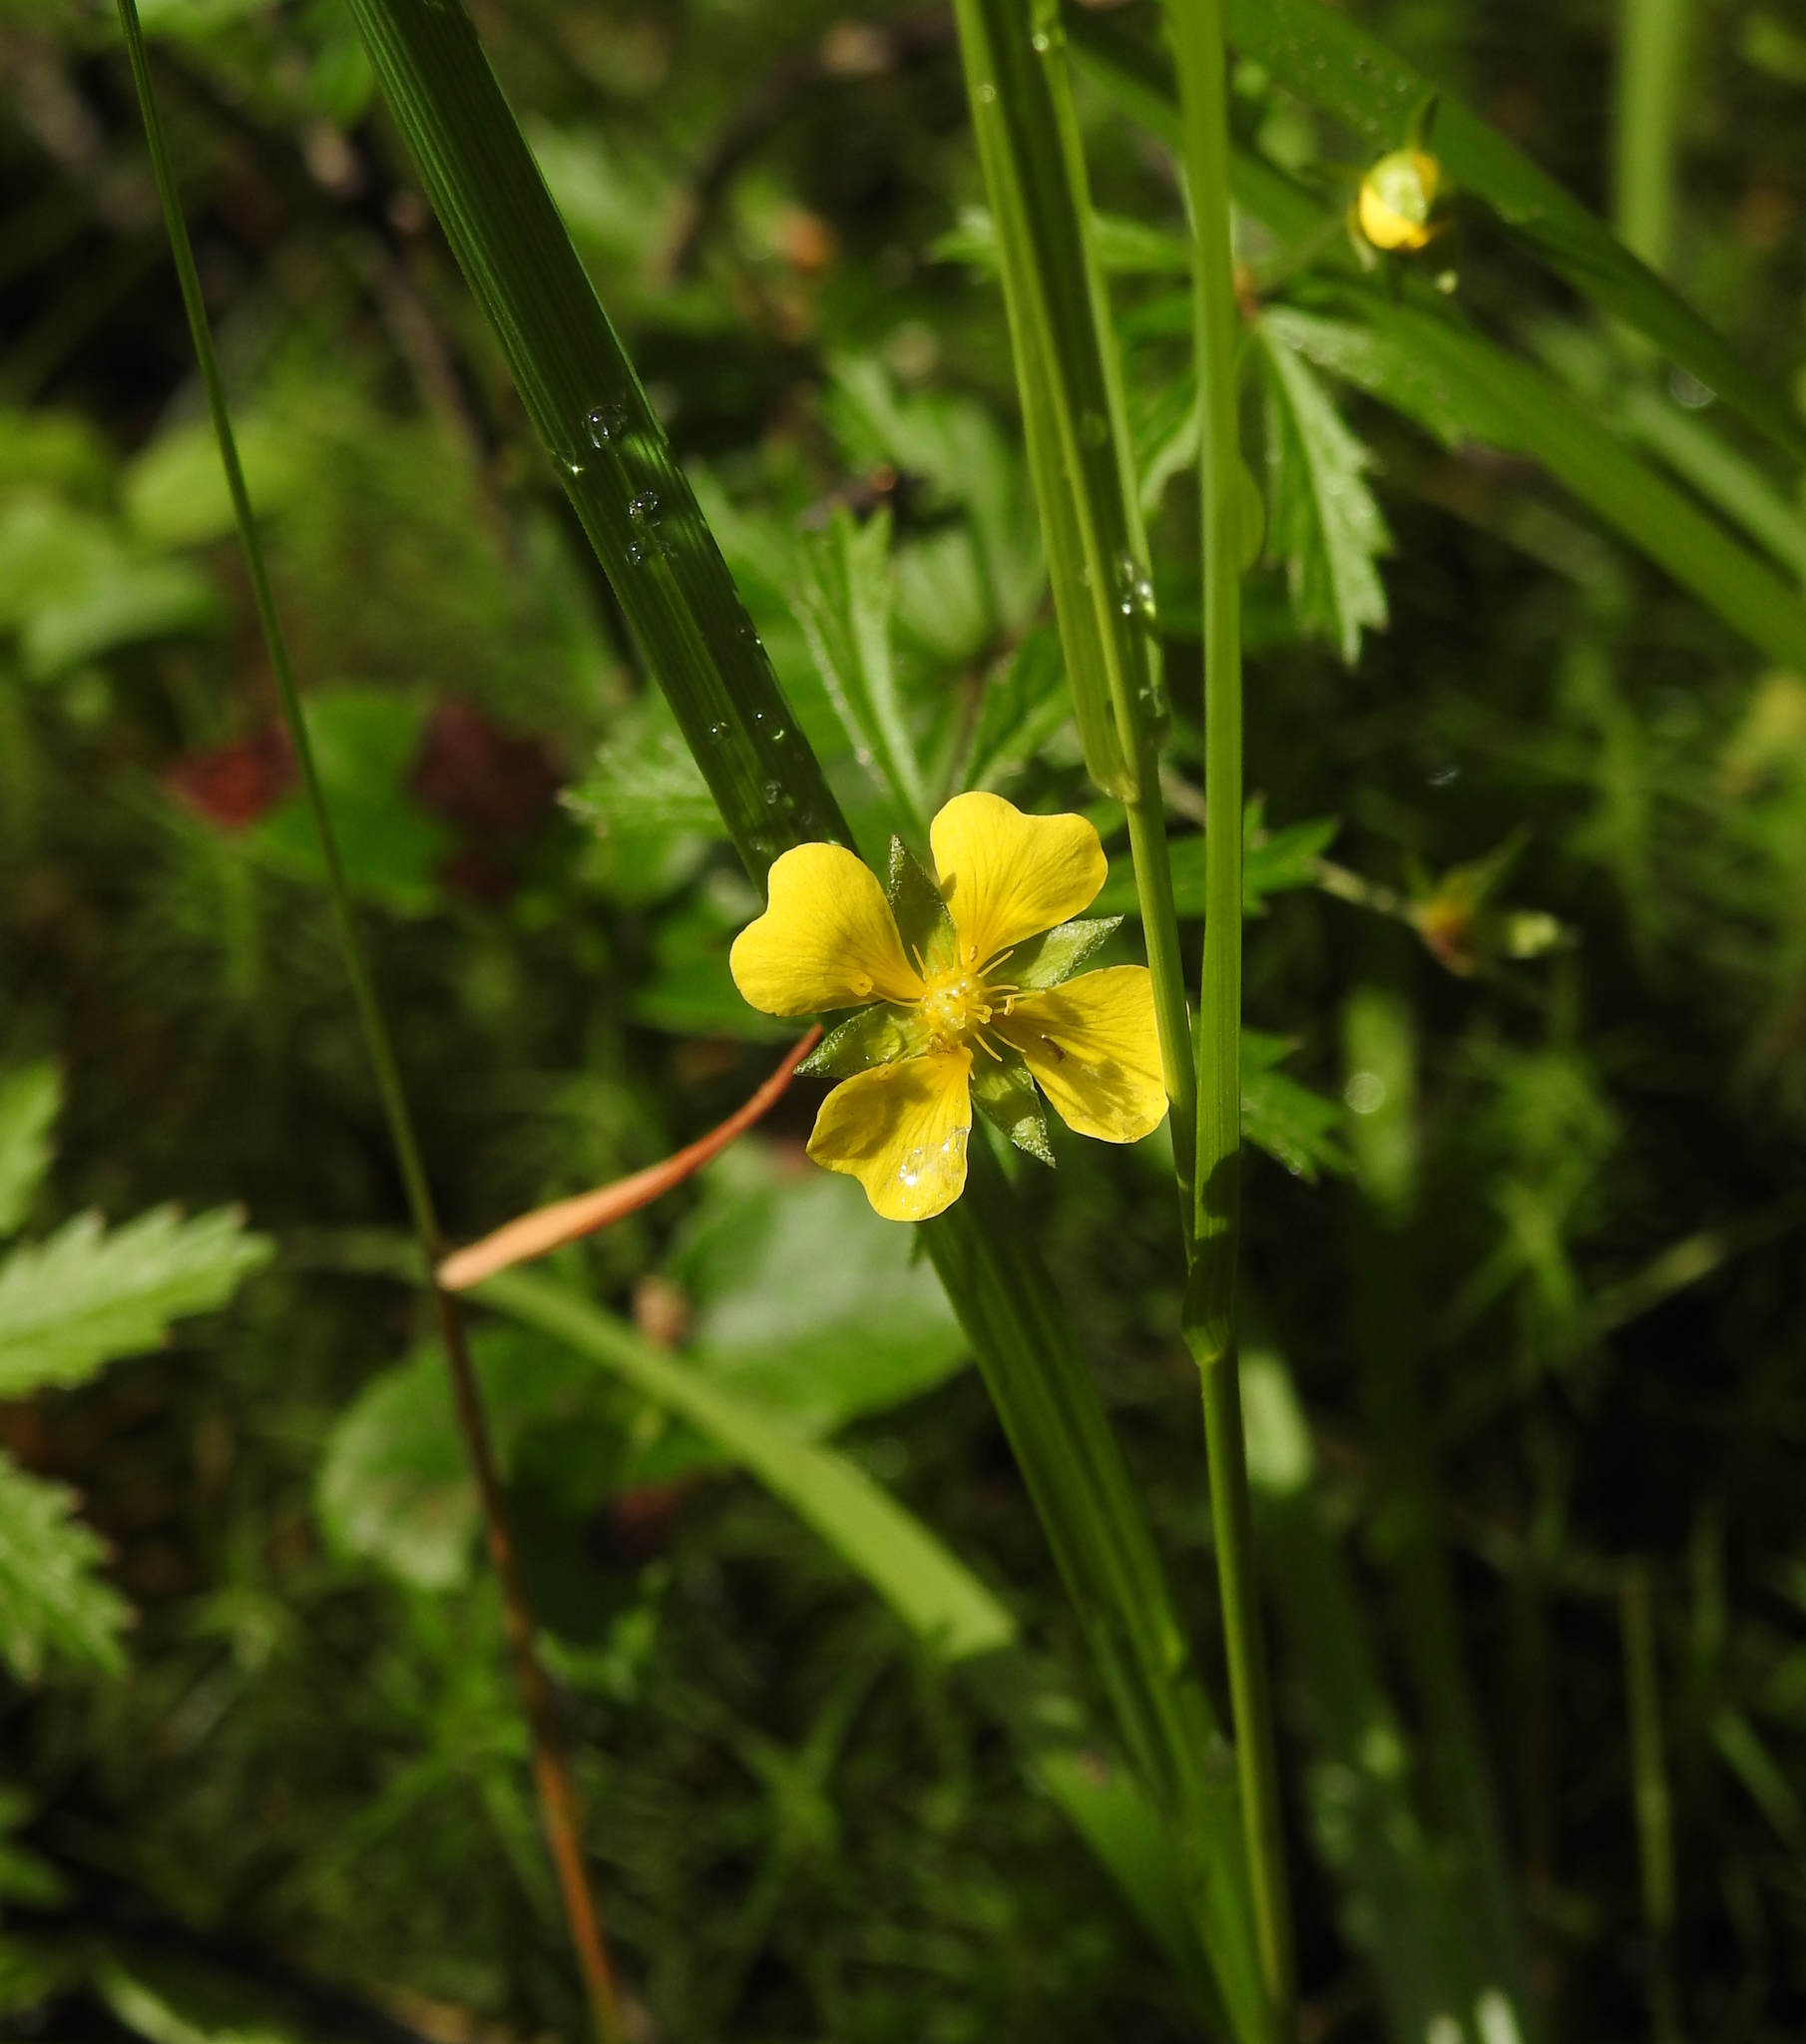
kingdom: Plantae
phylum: Tracheophyta
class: Magnoliopsida
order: Rosales
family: Rosaceae
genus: Potentilla
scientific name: Potentilla erecta
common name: Tormentil
